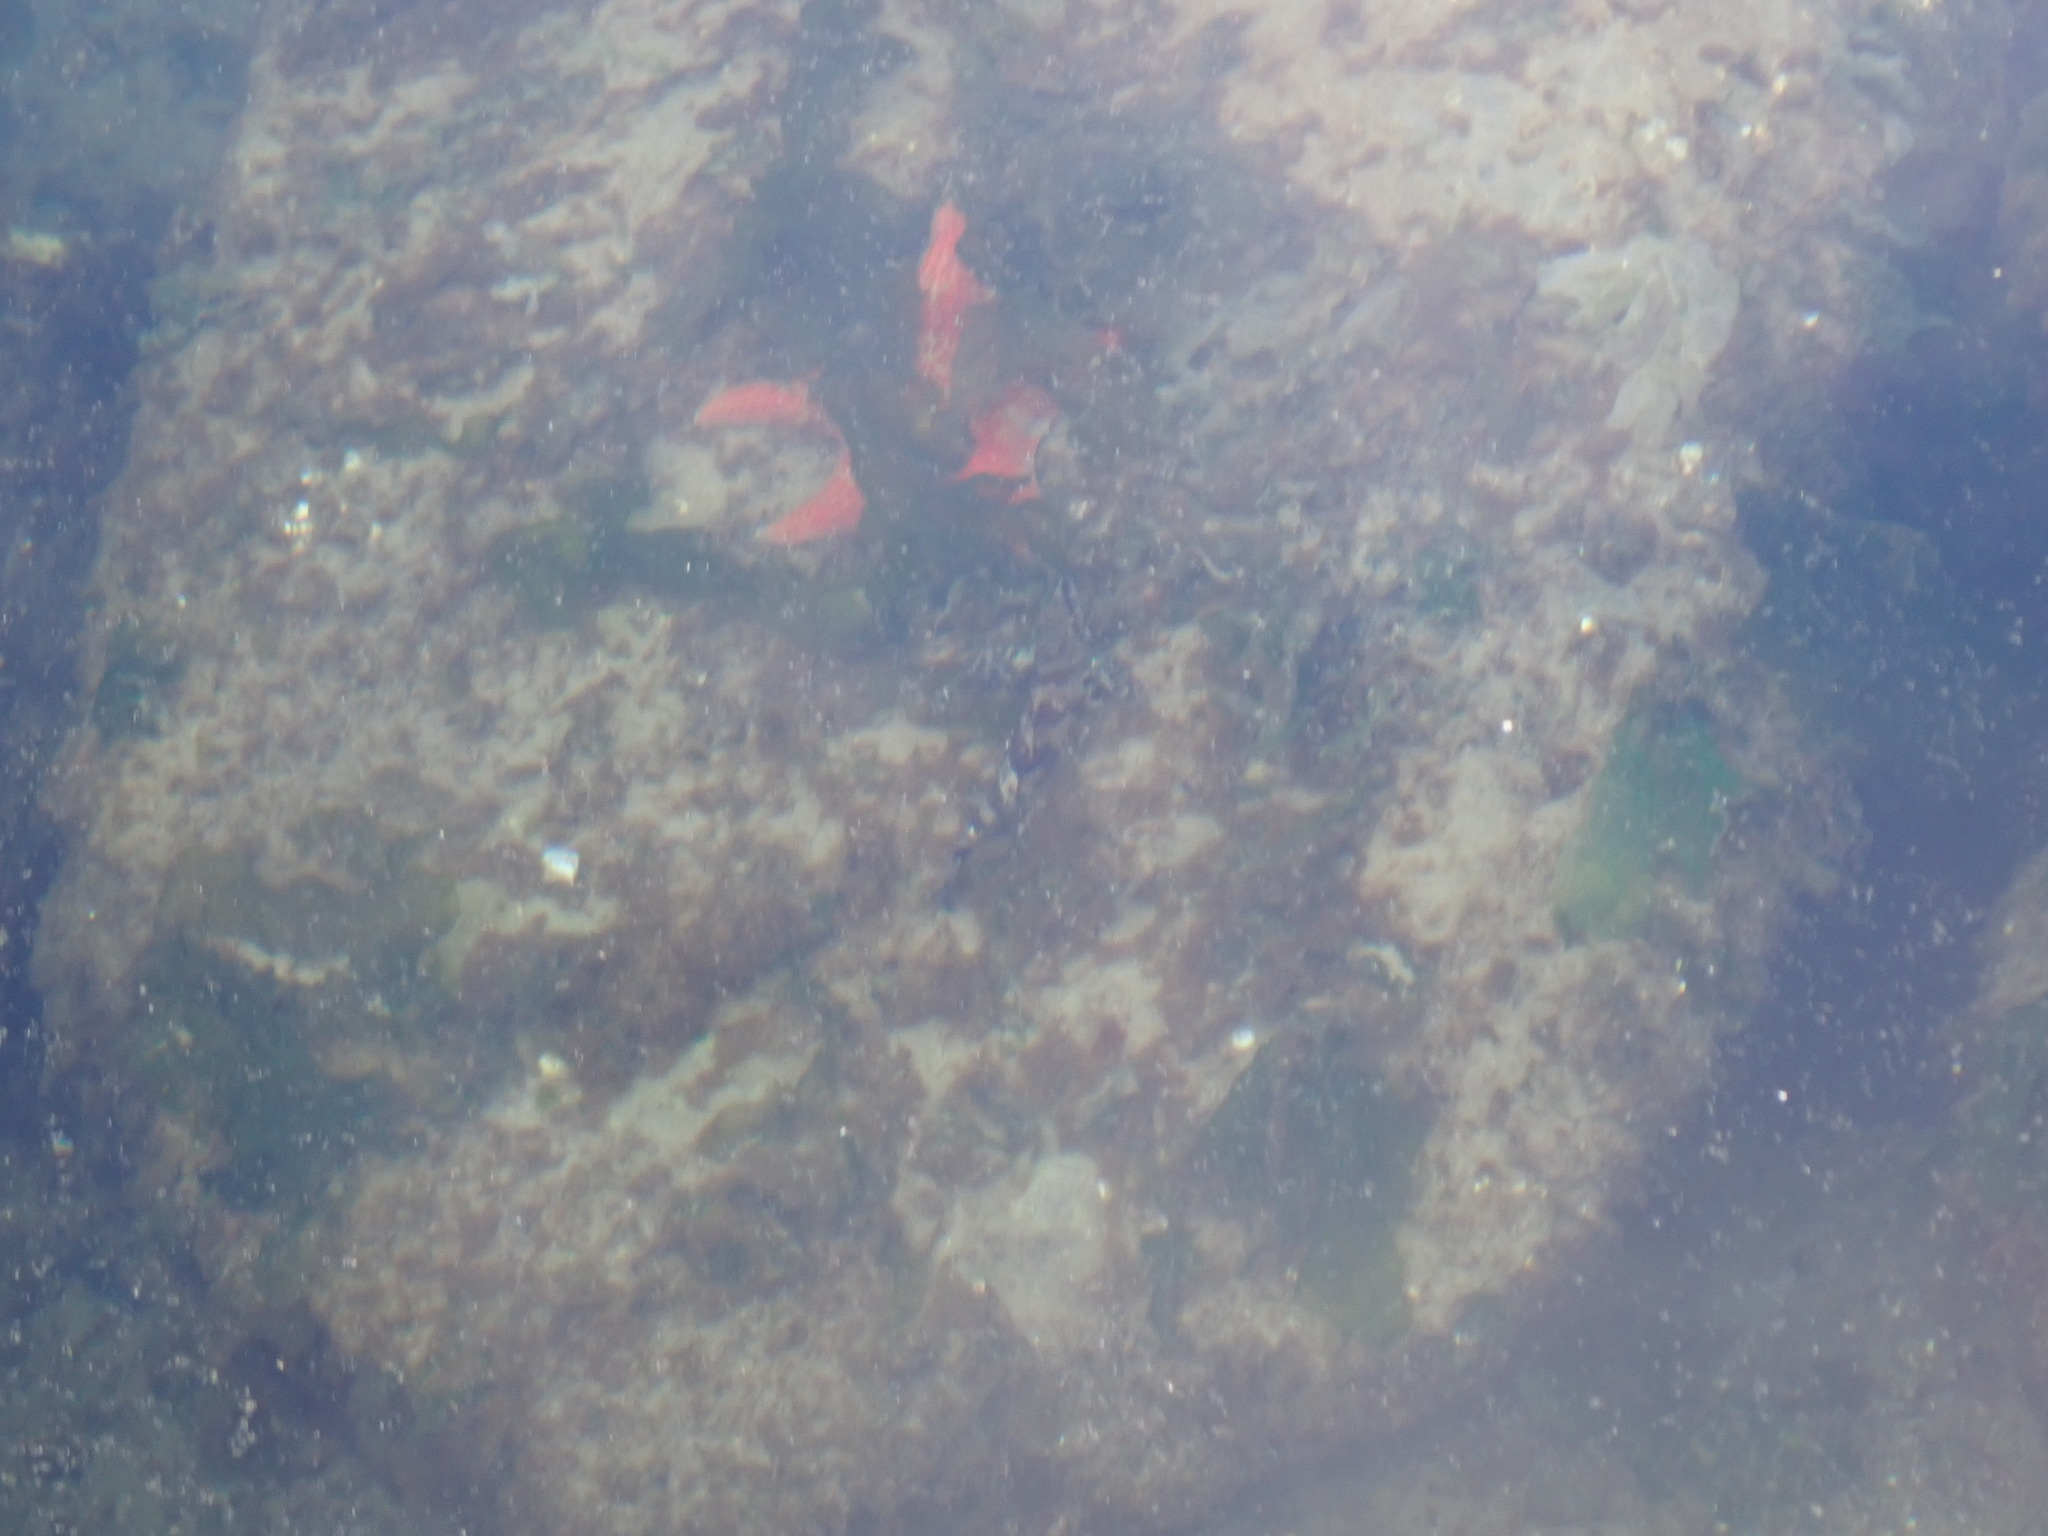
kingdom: Animalia
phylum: Chordata
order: Scorpaeniformes
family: Hexagrammidae
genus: Oxylebius
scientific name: Oxylebius pictus
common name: Painted greenling
